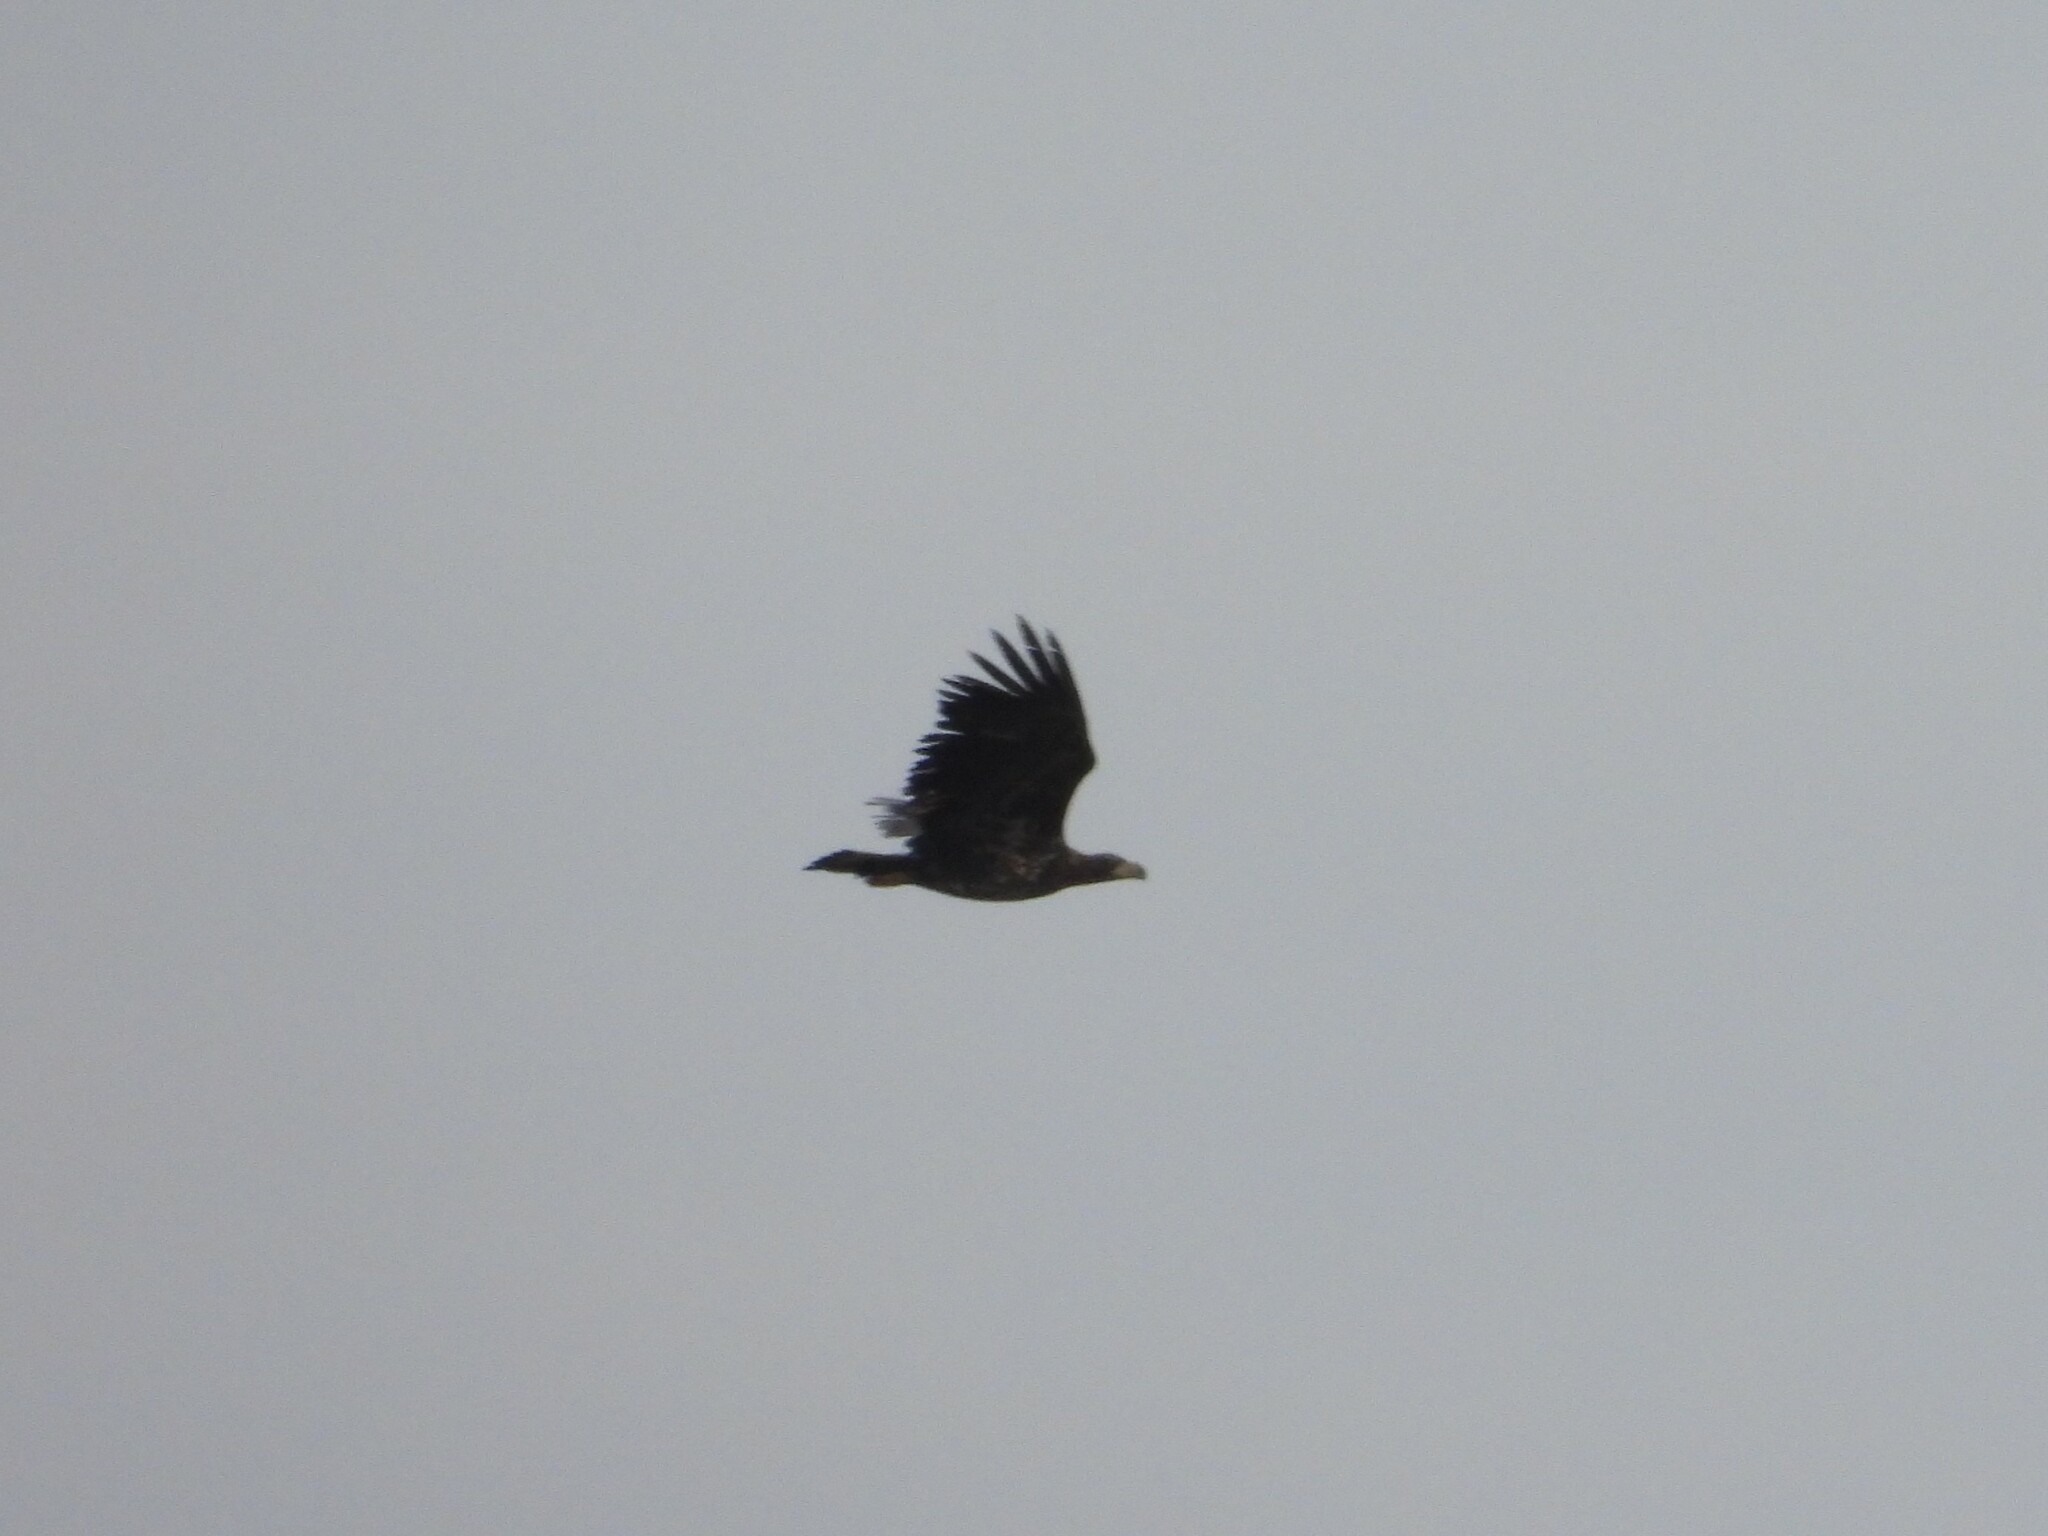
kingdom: Animalia
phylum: Chordata
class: Aves
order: Accipitriformes
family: Accipitridae
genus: Haliaeetus
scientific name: Haliaeetus albicilla
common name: White-tailed eagle
